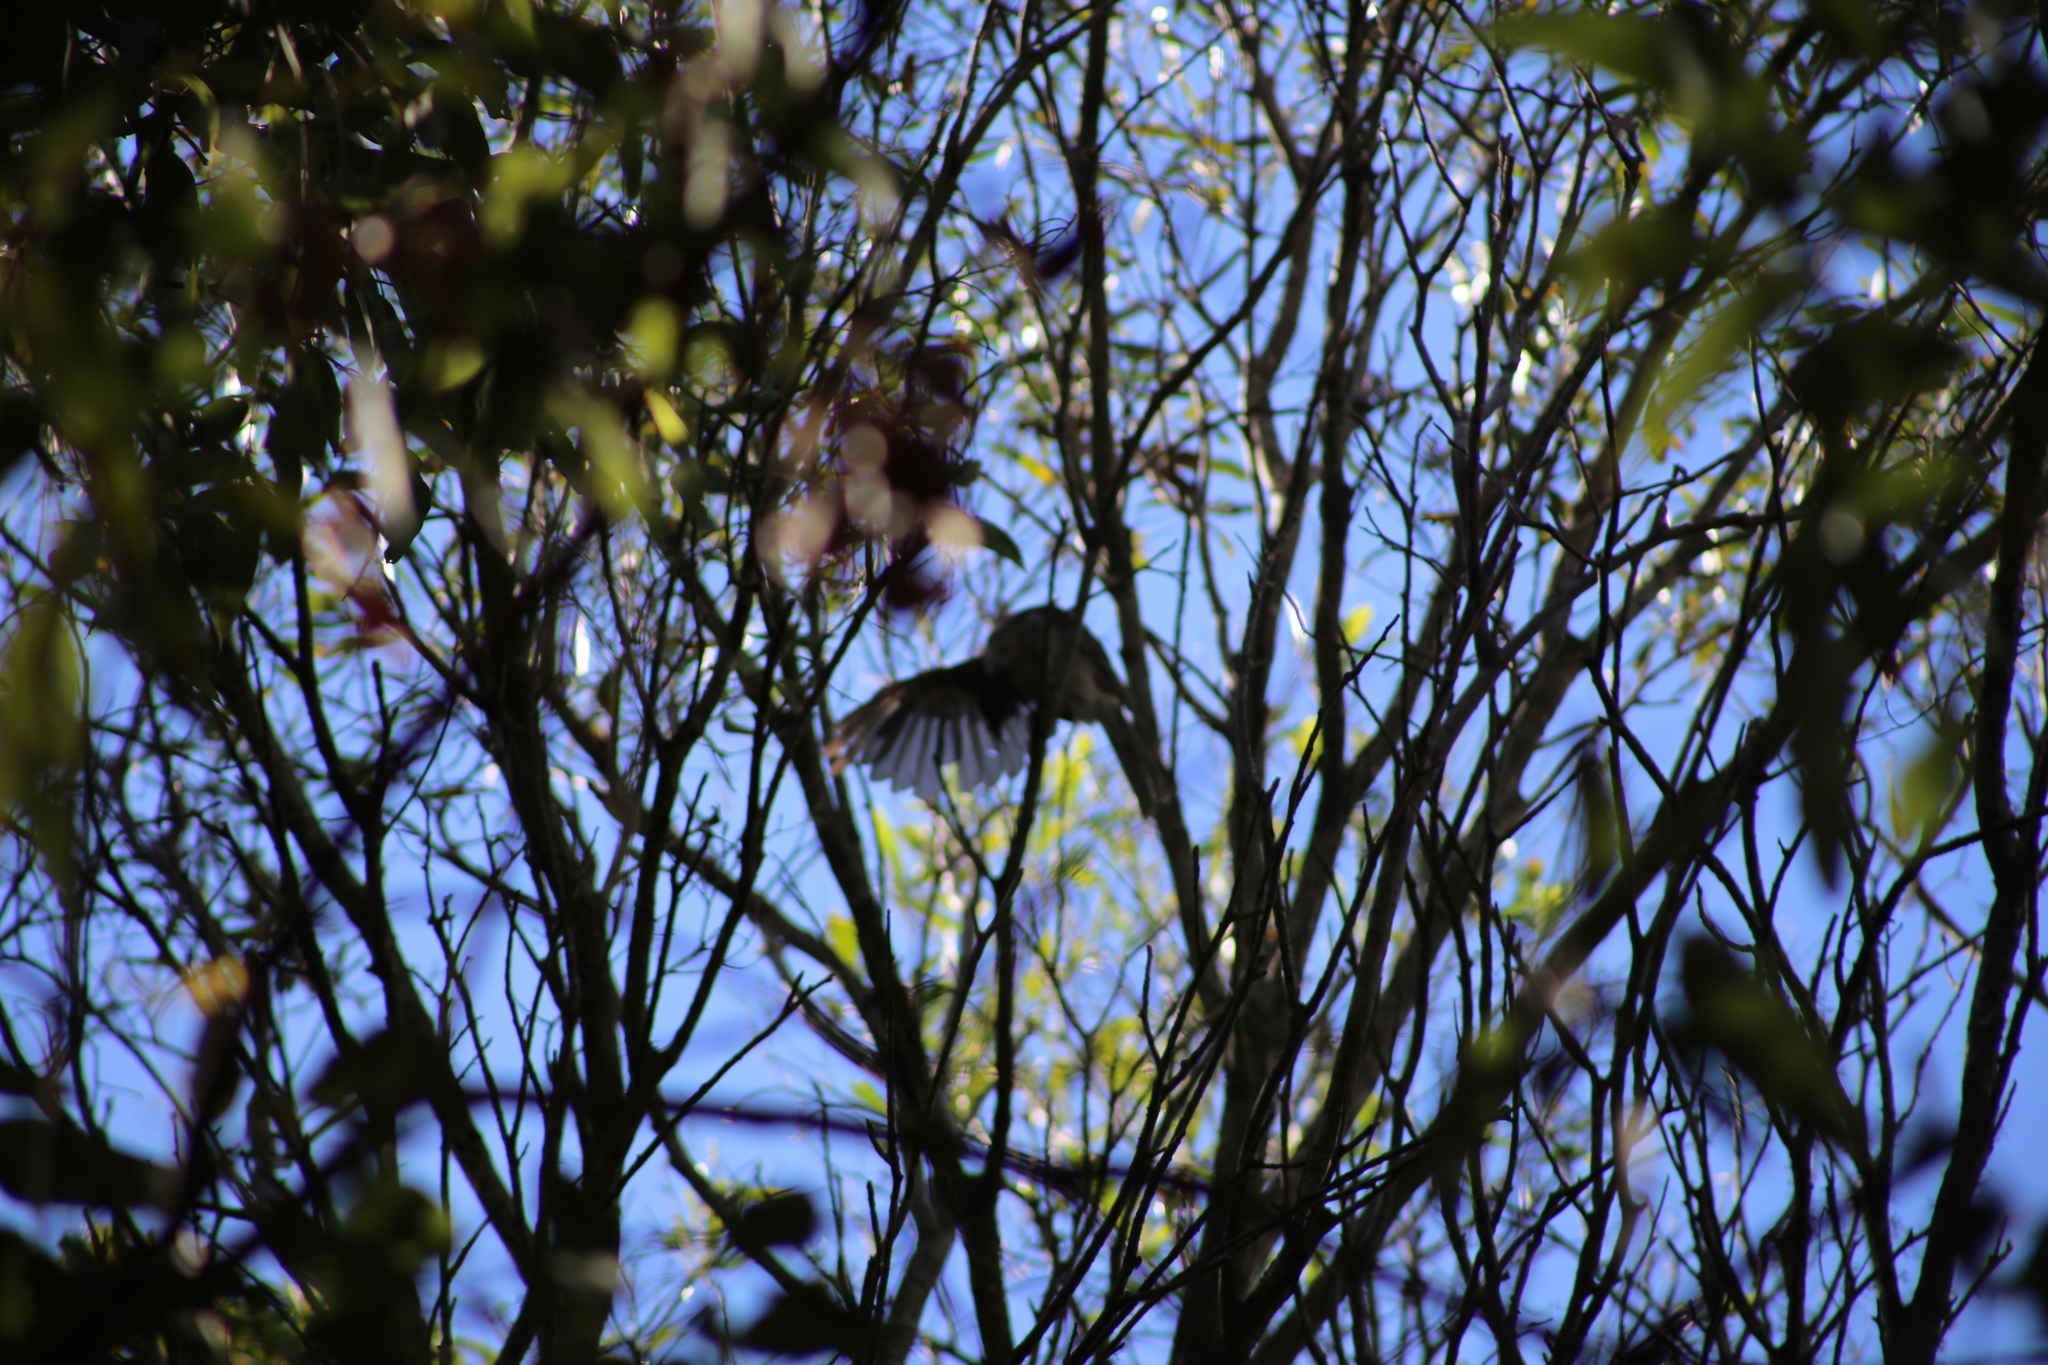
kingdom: Animalia
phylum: Chordata
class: Aves
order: Passeriformes
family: Meliphagidae
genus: Philemon
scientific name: Philemon corniculatus
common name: Noisy friarbird
